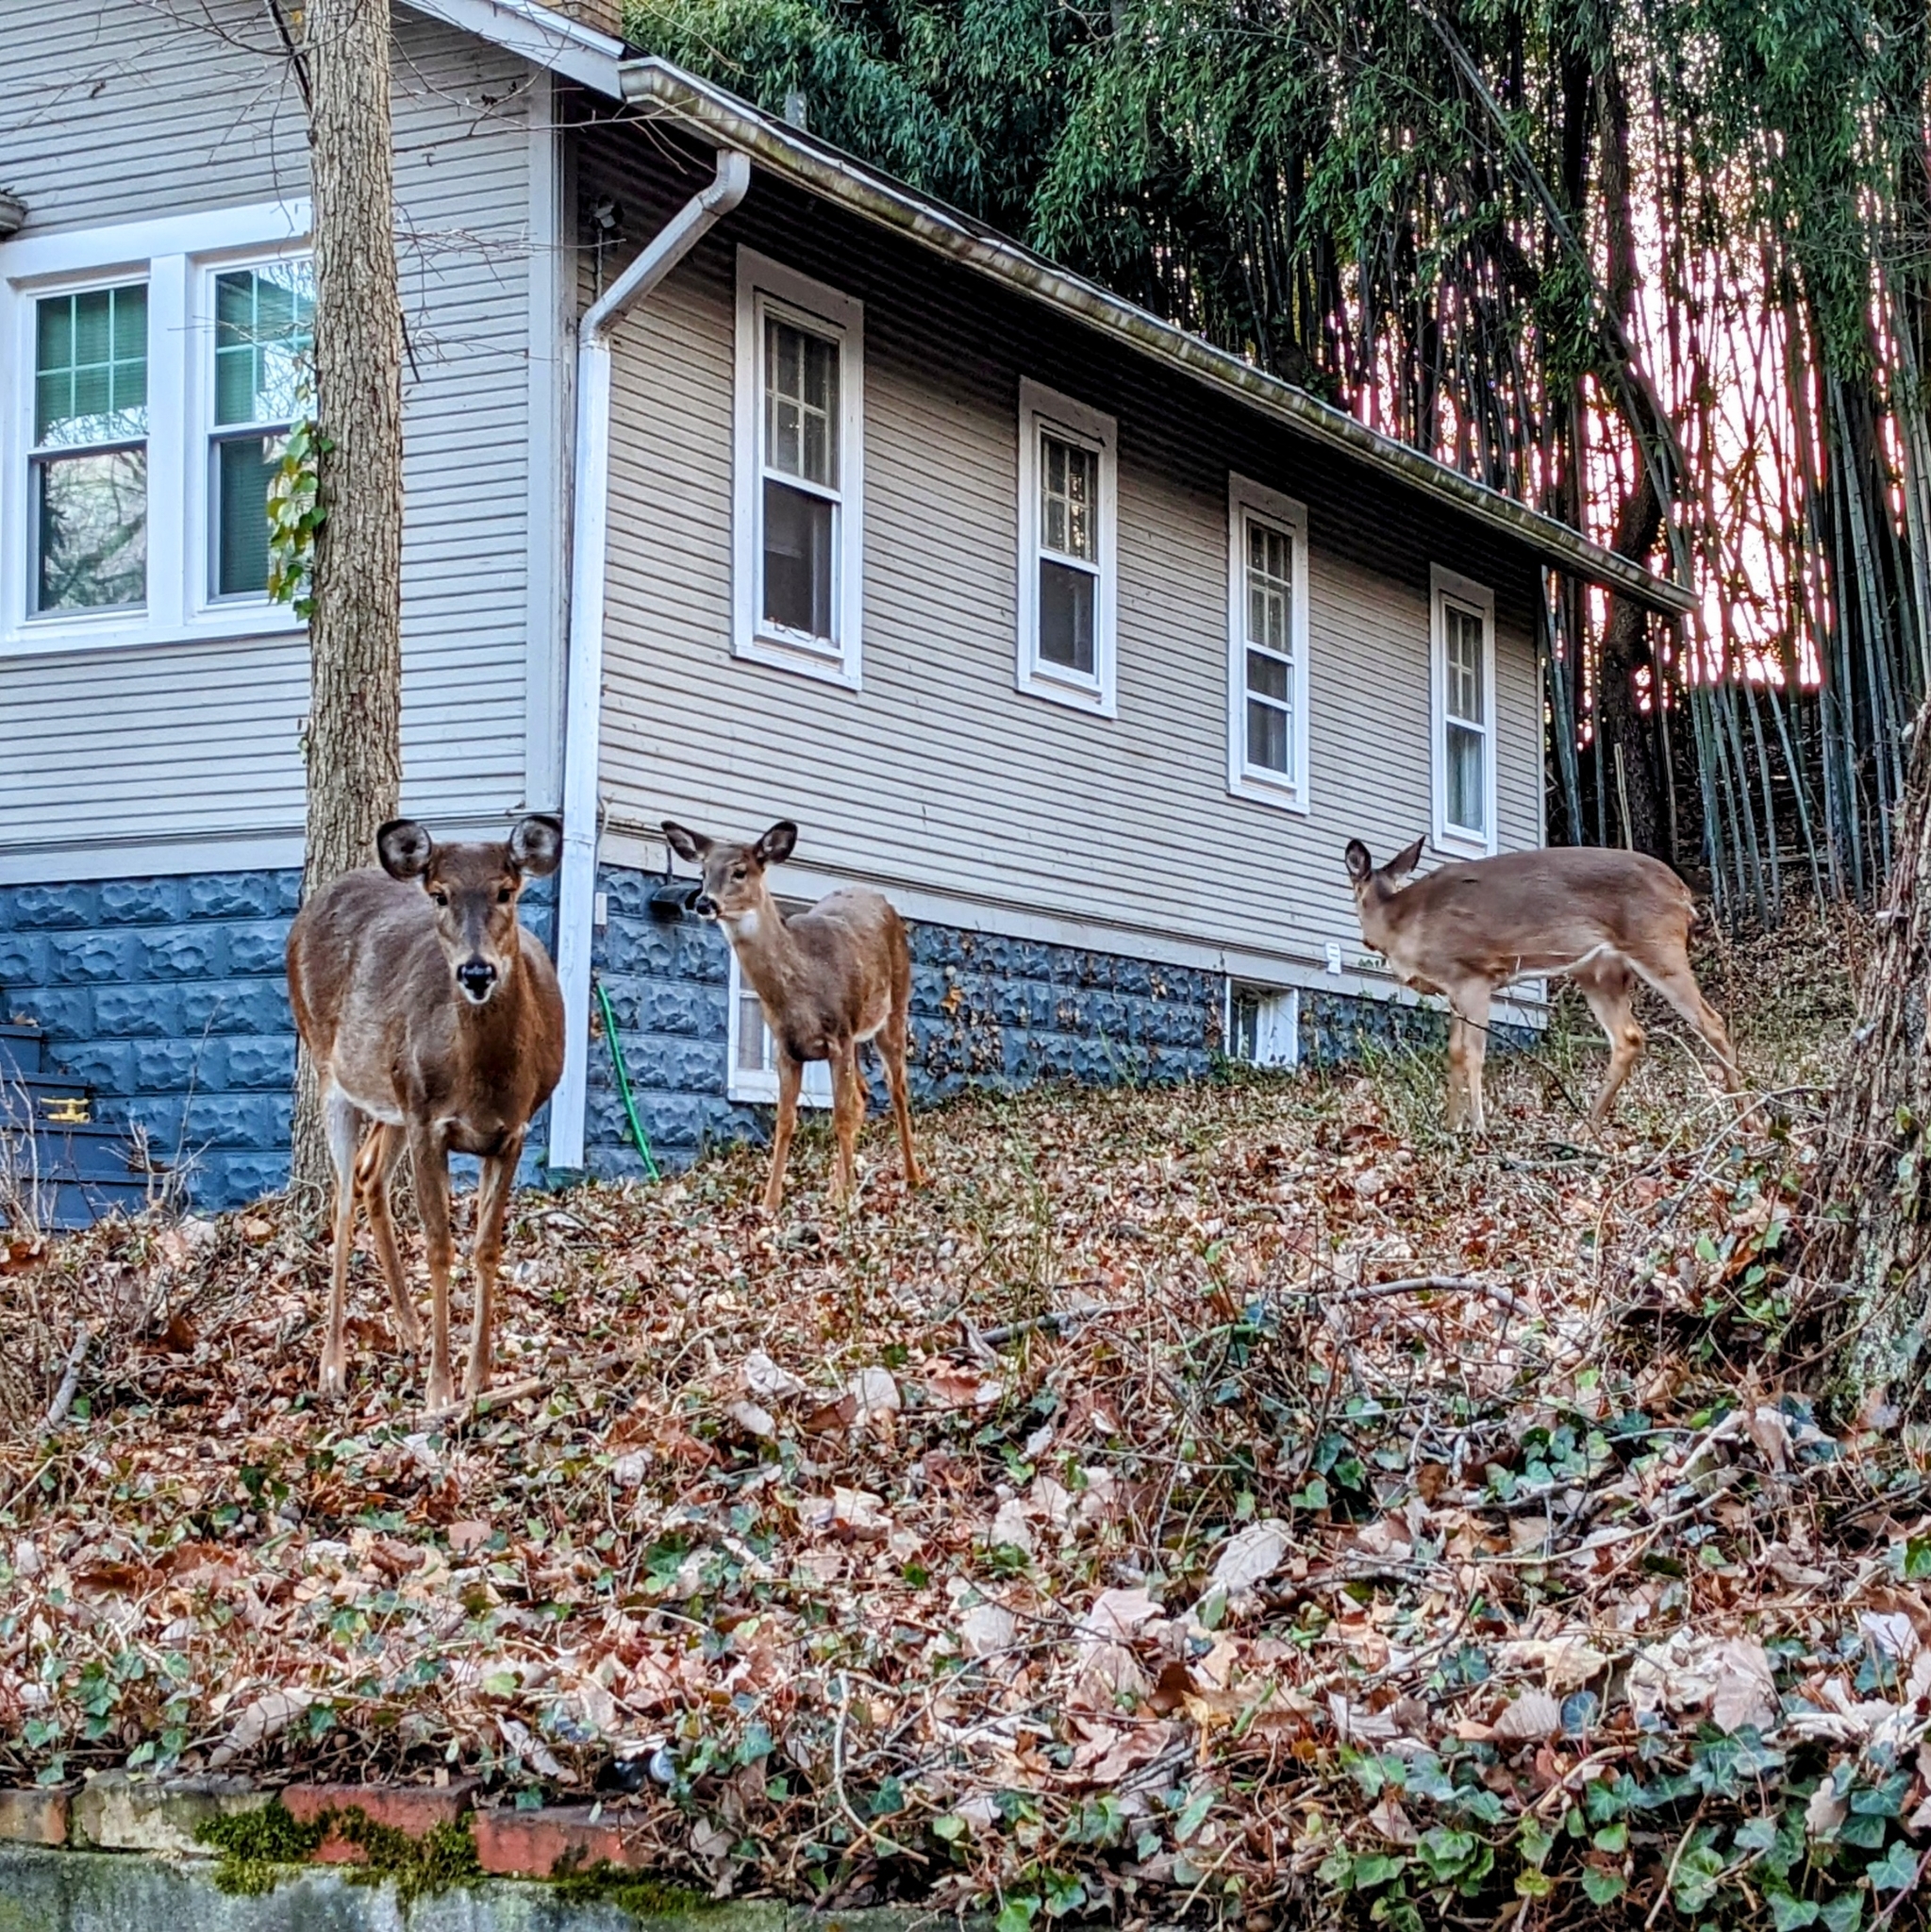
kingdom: Animalia
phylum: Chordata
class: Mammalia
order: Artiodactyla
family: Cervidae
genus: Odocoileus
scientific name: Odocoileus virginianus
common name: White-tailed deer
